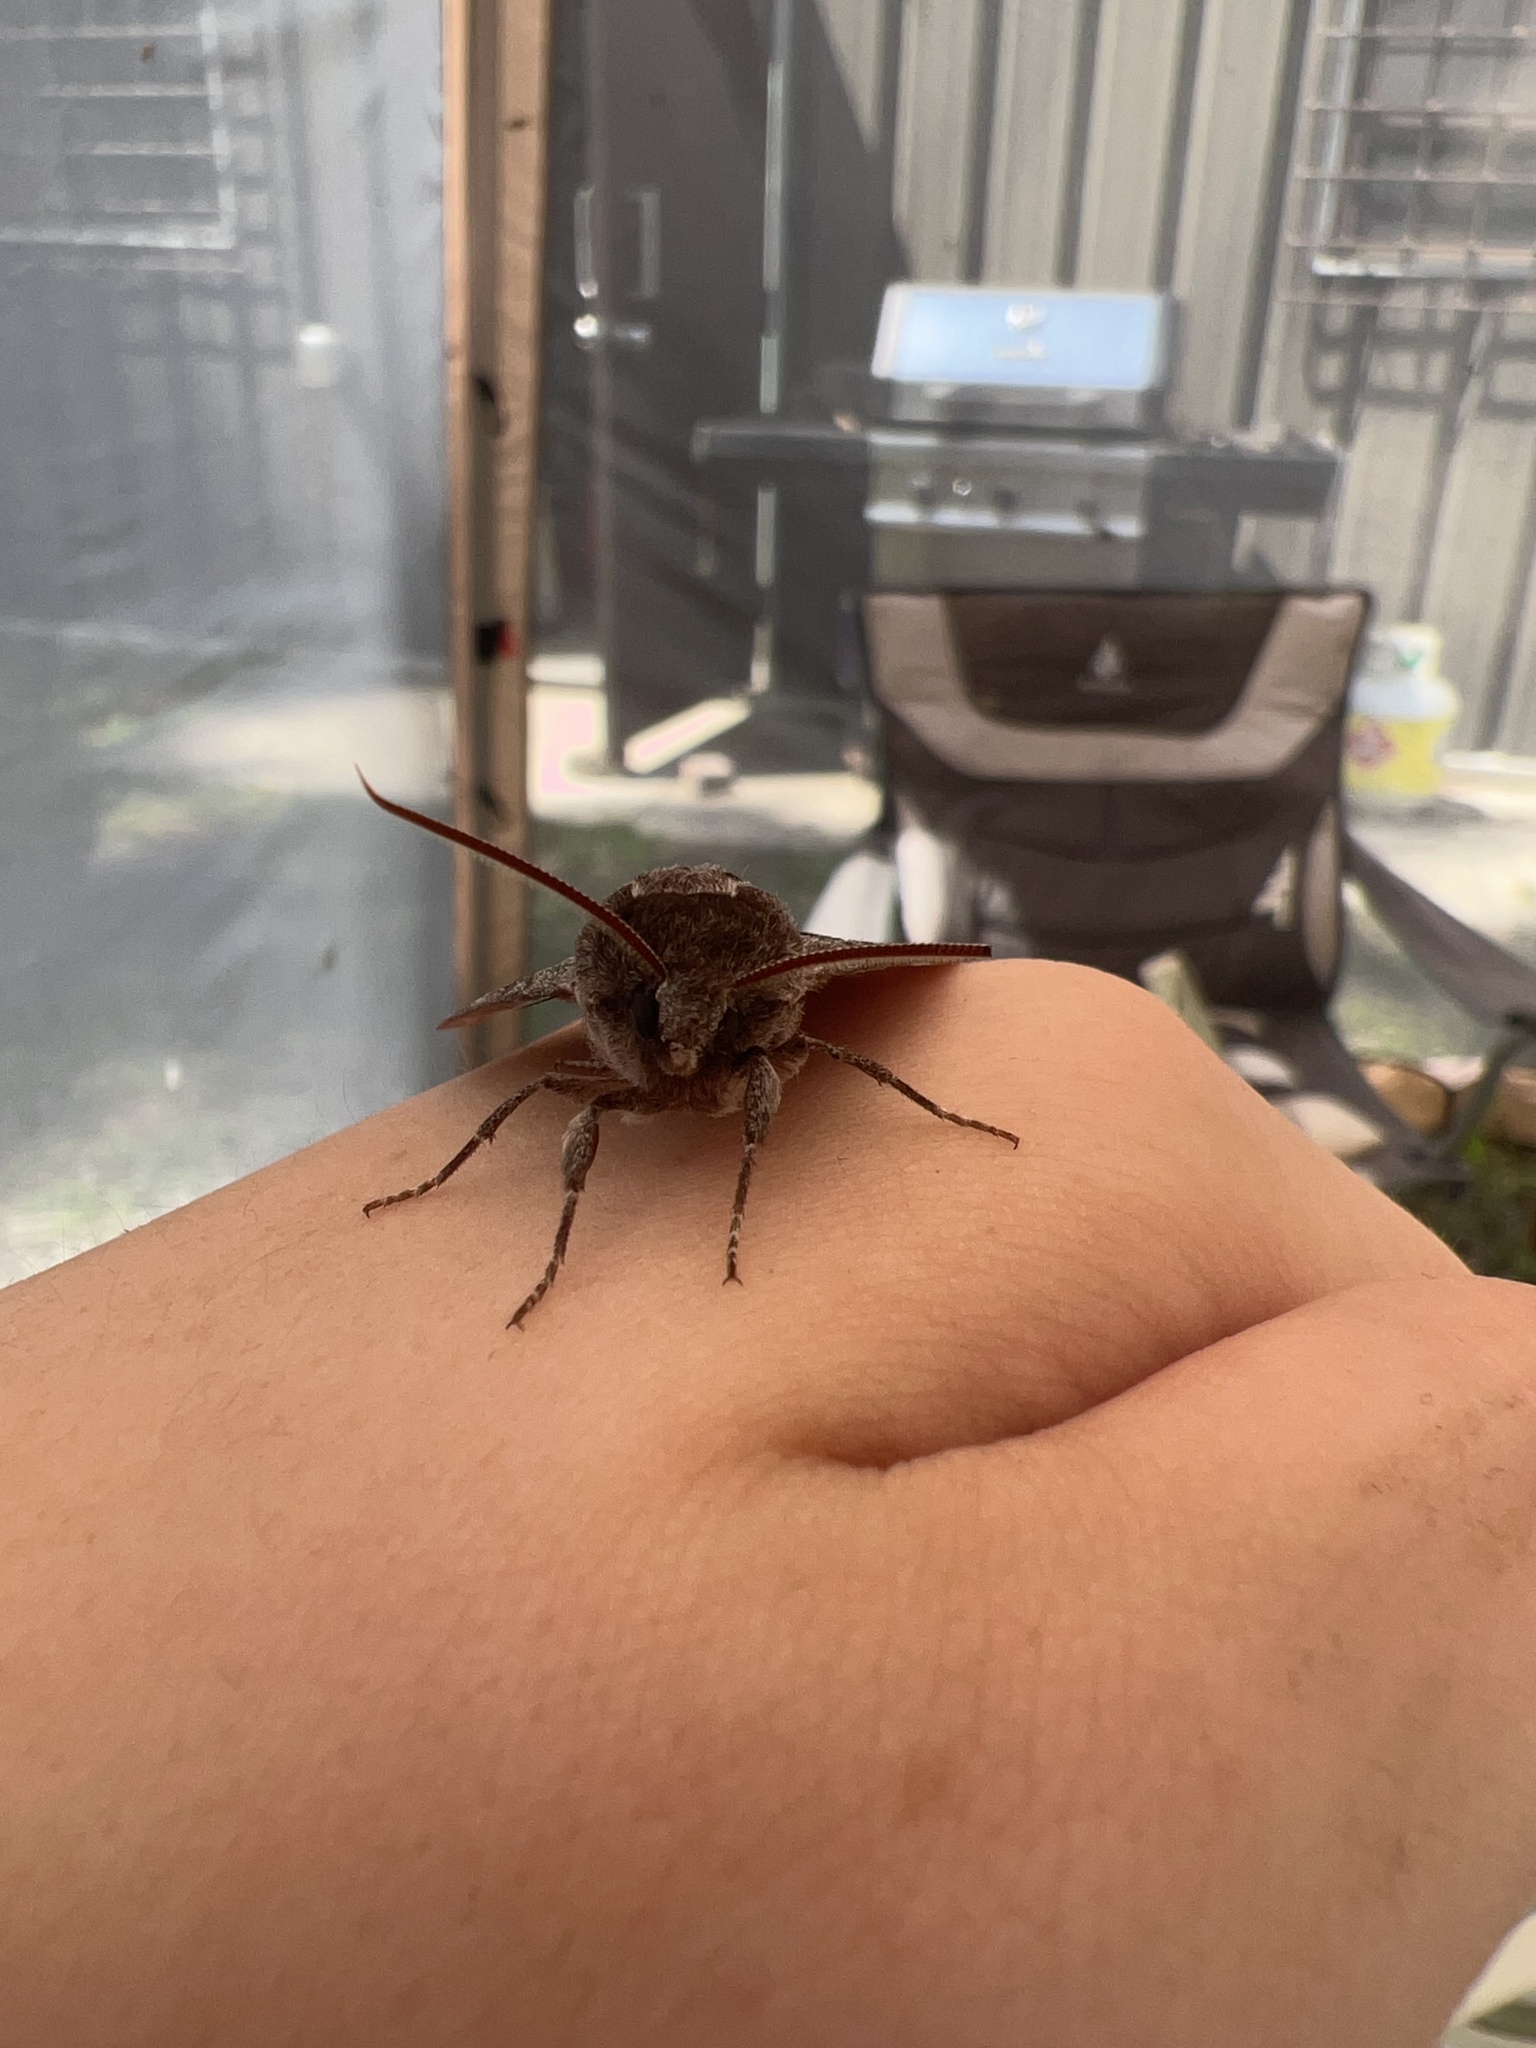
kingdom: Animalia
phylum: Arthropoda
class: Insecta
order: Lepidoptera
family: Sphingidae
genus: Lapara
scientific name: Lapara bombycoides
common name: Northern pine sphinx
